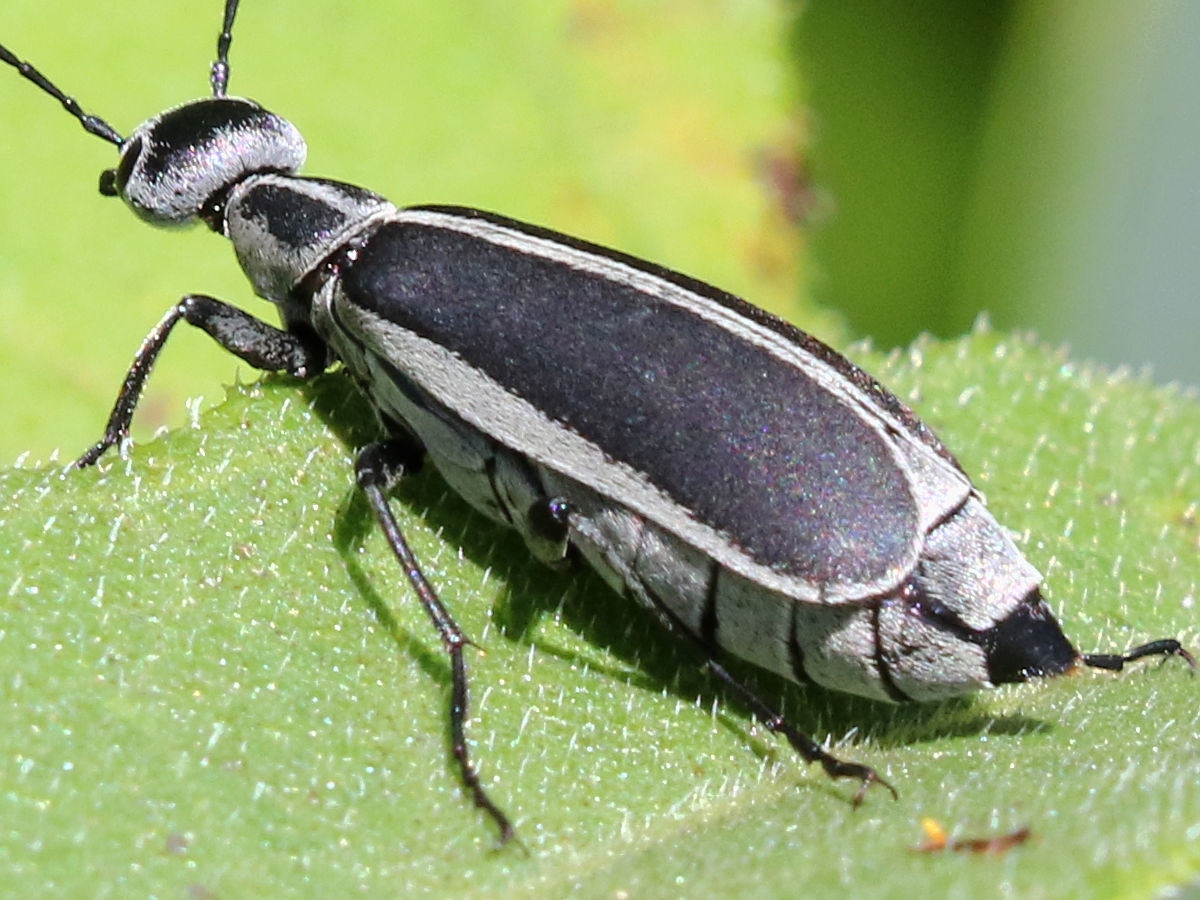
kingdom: Animalia
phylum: Arthropoda
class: Insecta
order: Coleoptera
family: Meloidae
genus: Epicauta
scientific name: Epicauta funebris
